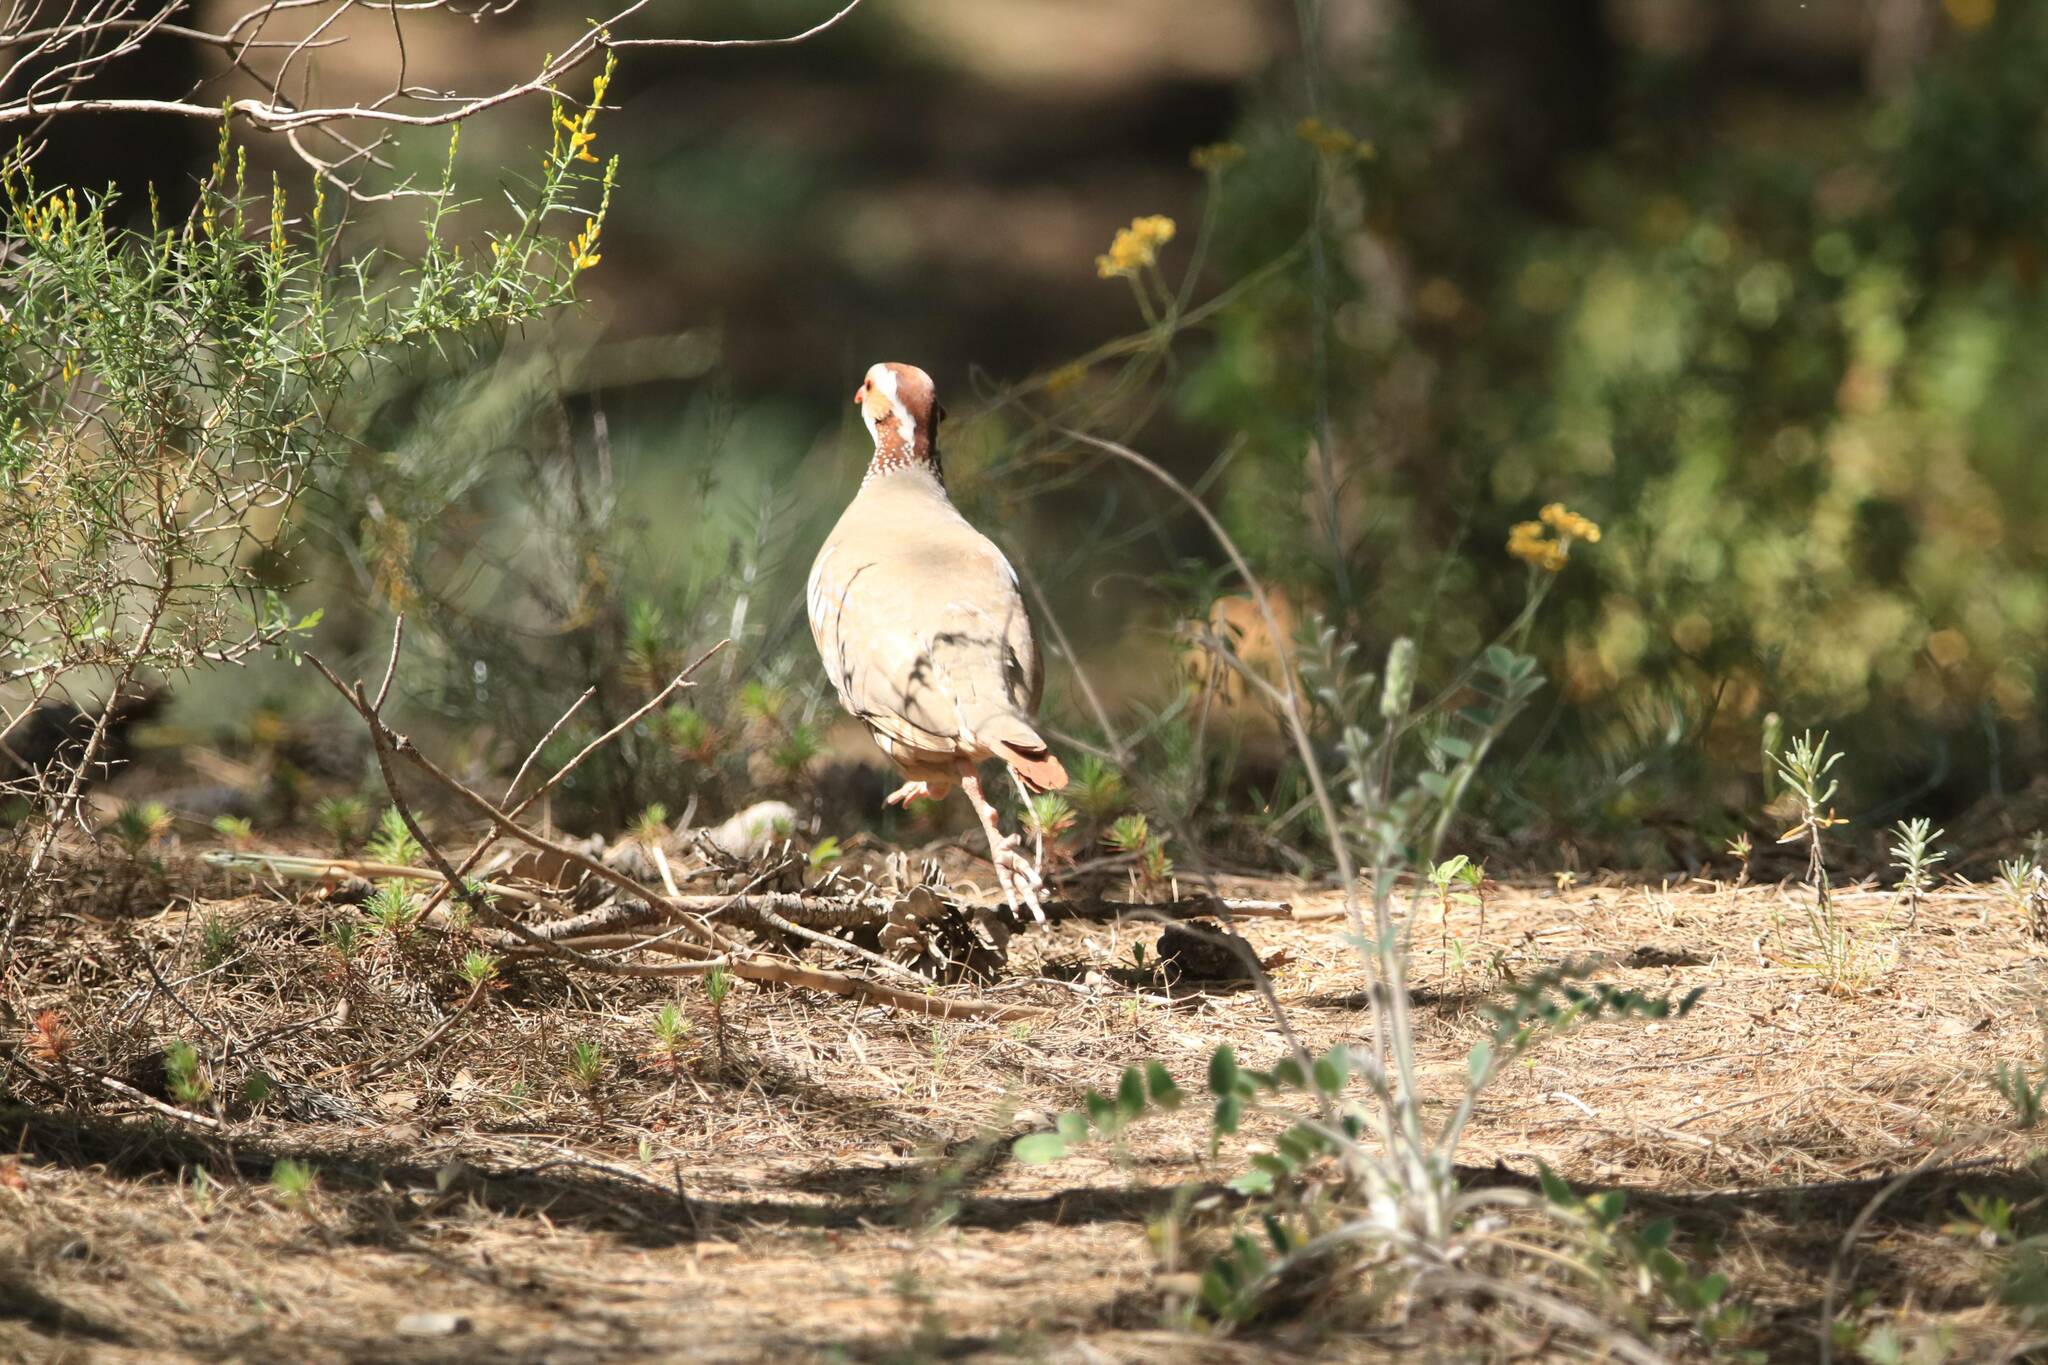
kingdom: Animalia
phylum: Chordata
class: Aves
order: Galliformes
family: Phasianidae
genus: Alectoris
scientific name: Alectoris barbara
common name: Barbary partridge
